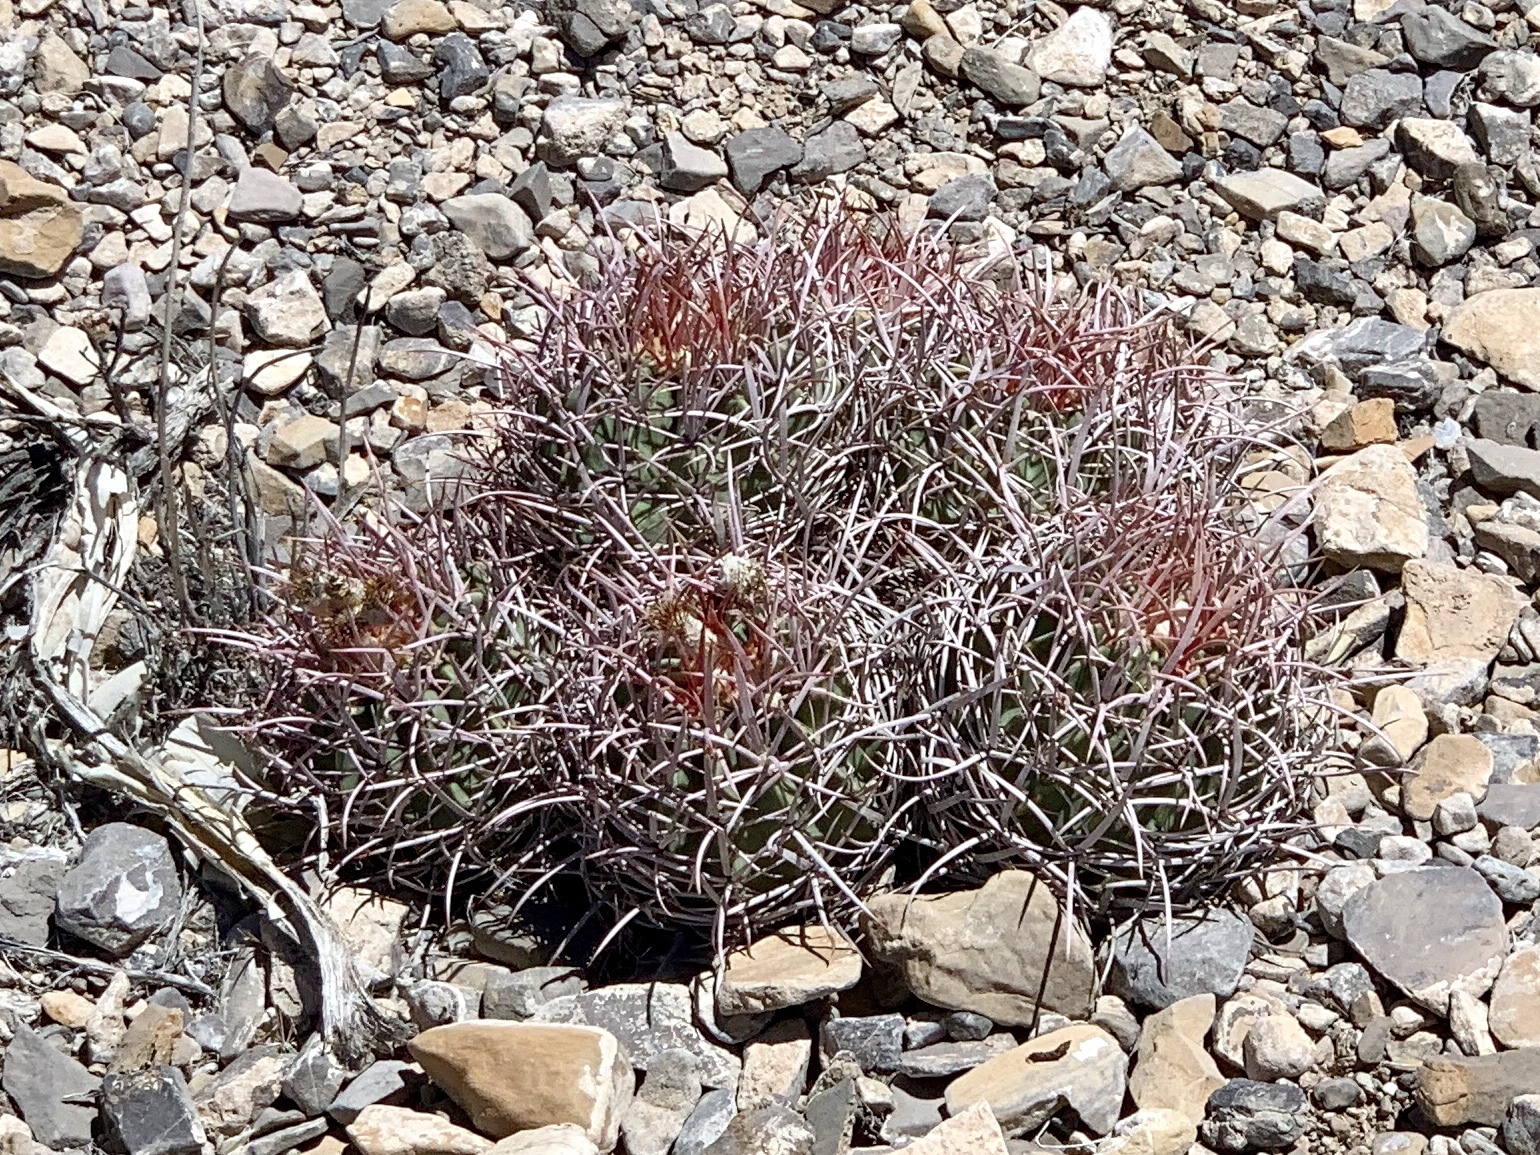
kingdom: Plantae
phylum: Tracheophyta
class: Magnoliopsida
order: Caryophyllales
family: Cactaceae
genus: Echinocactus
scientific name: Echinocactus polycephalus
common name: Cottontop cactus
